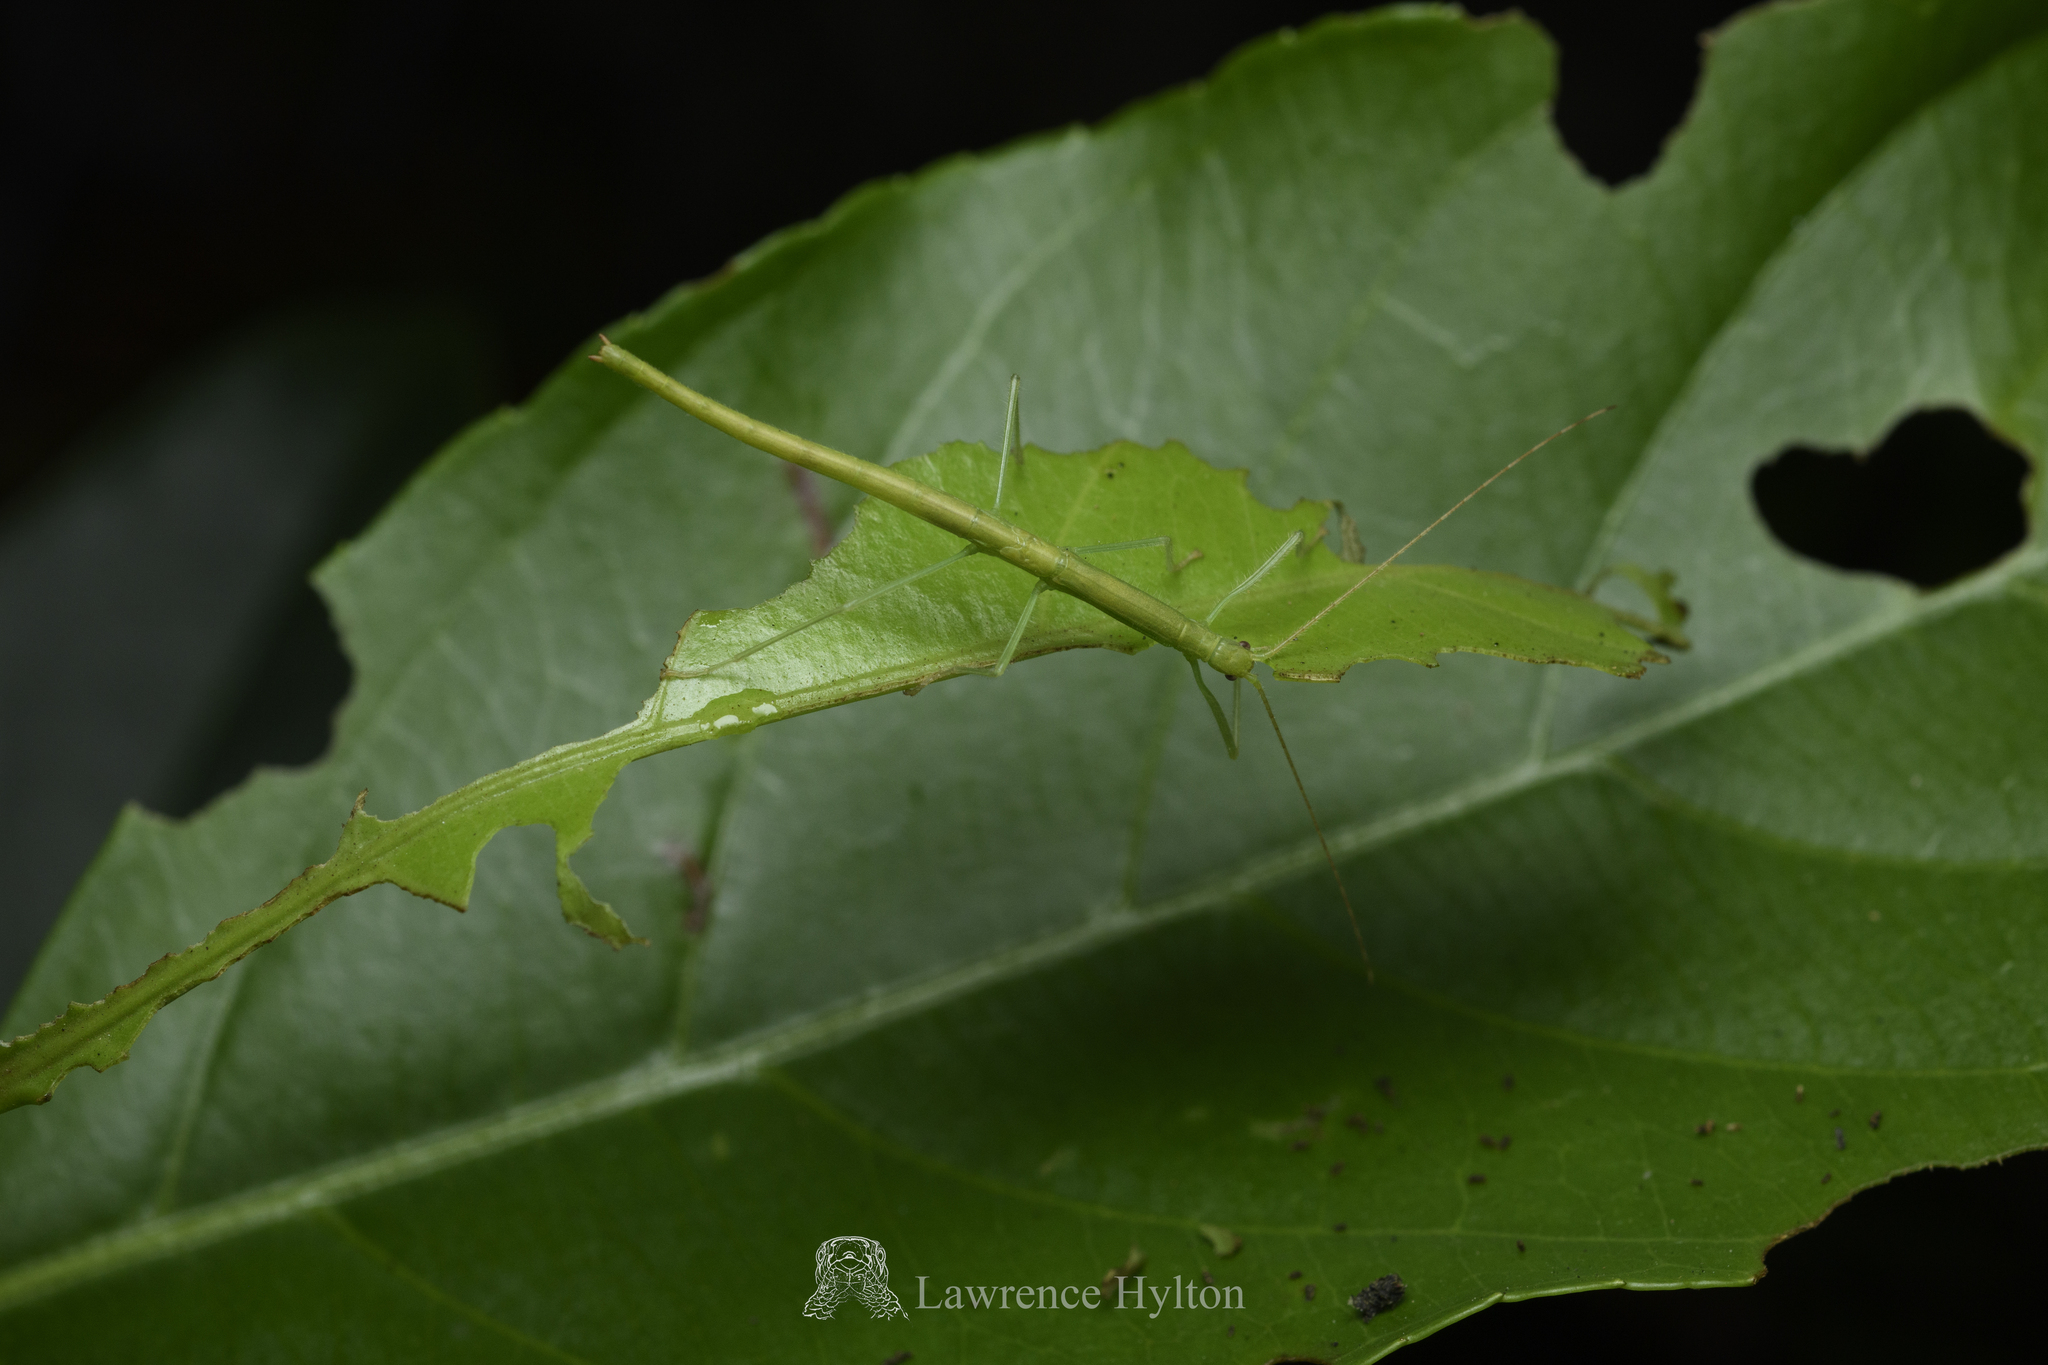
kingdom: Animalia
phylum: Arthropoda
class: Insecta
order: Phasmida
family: Lonchodidae
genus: Planososibia
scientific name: Planososibia truncata
